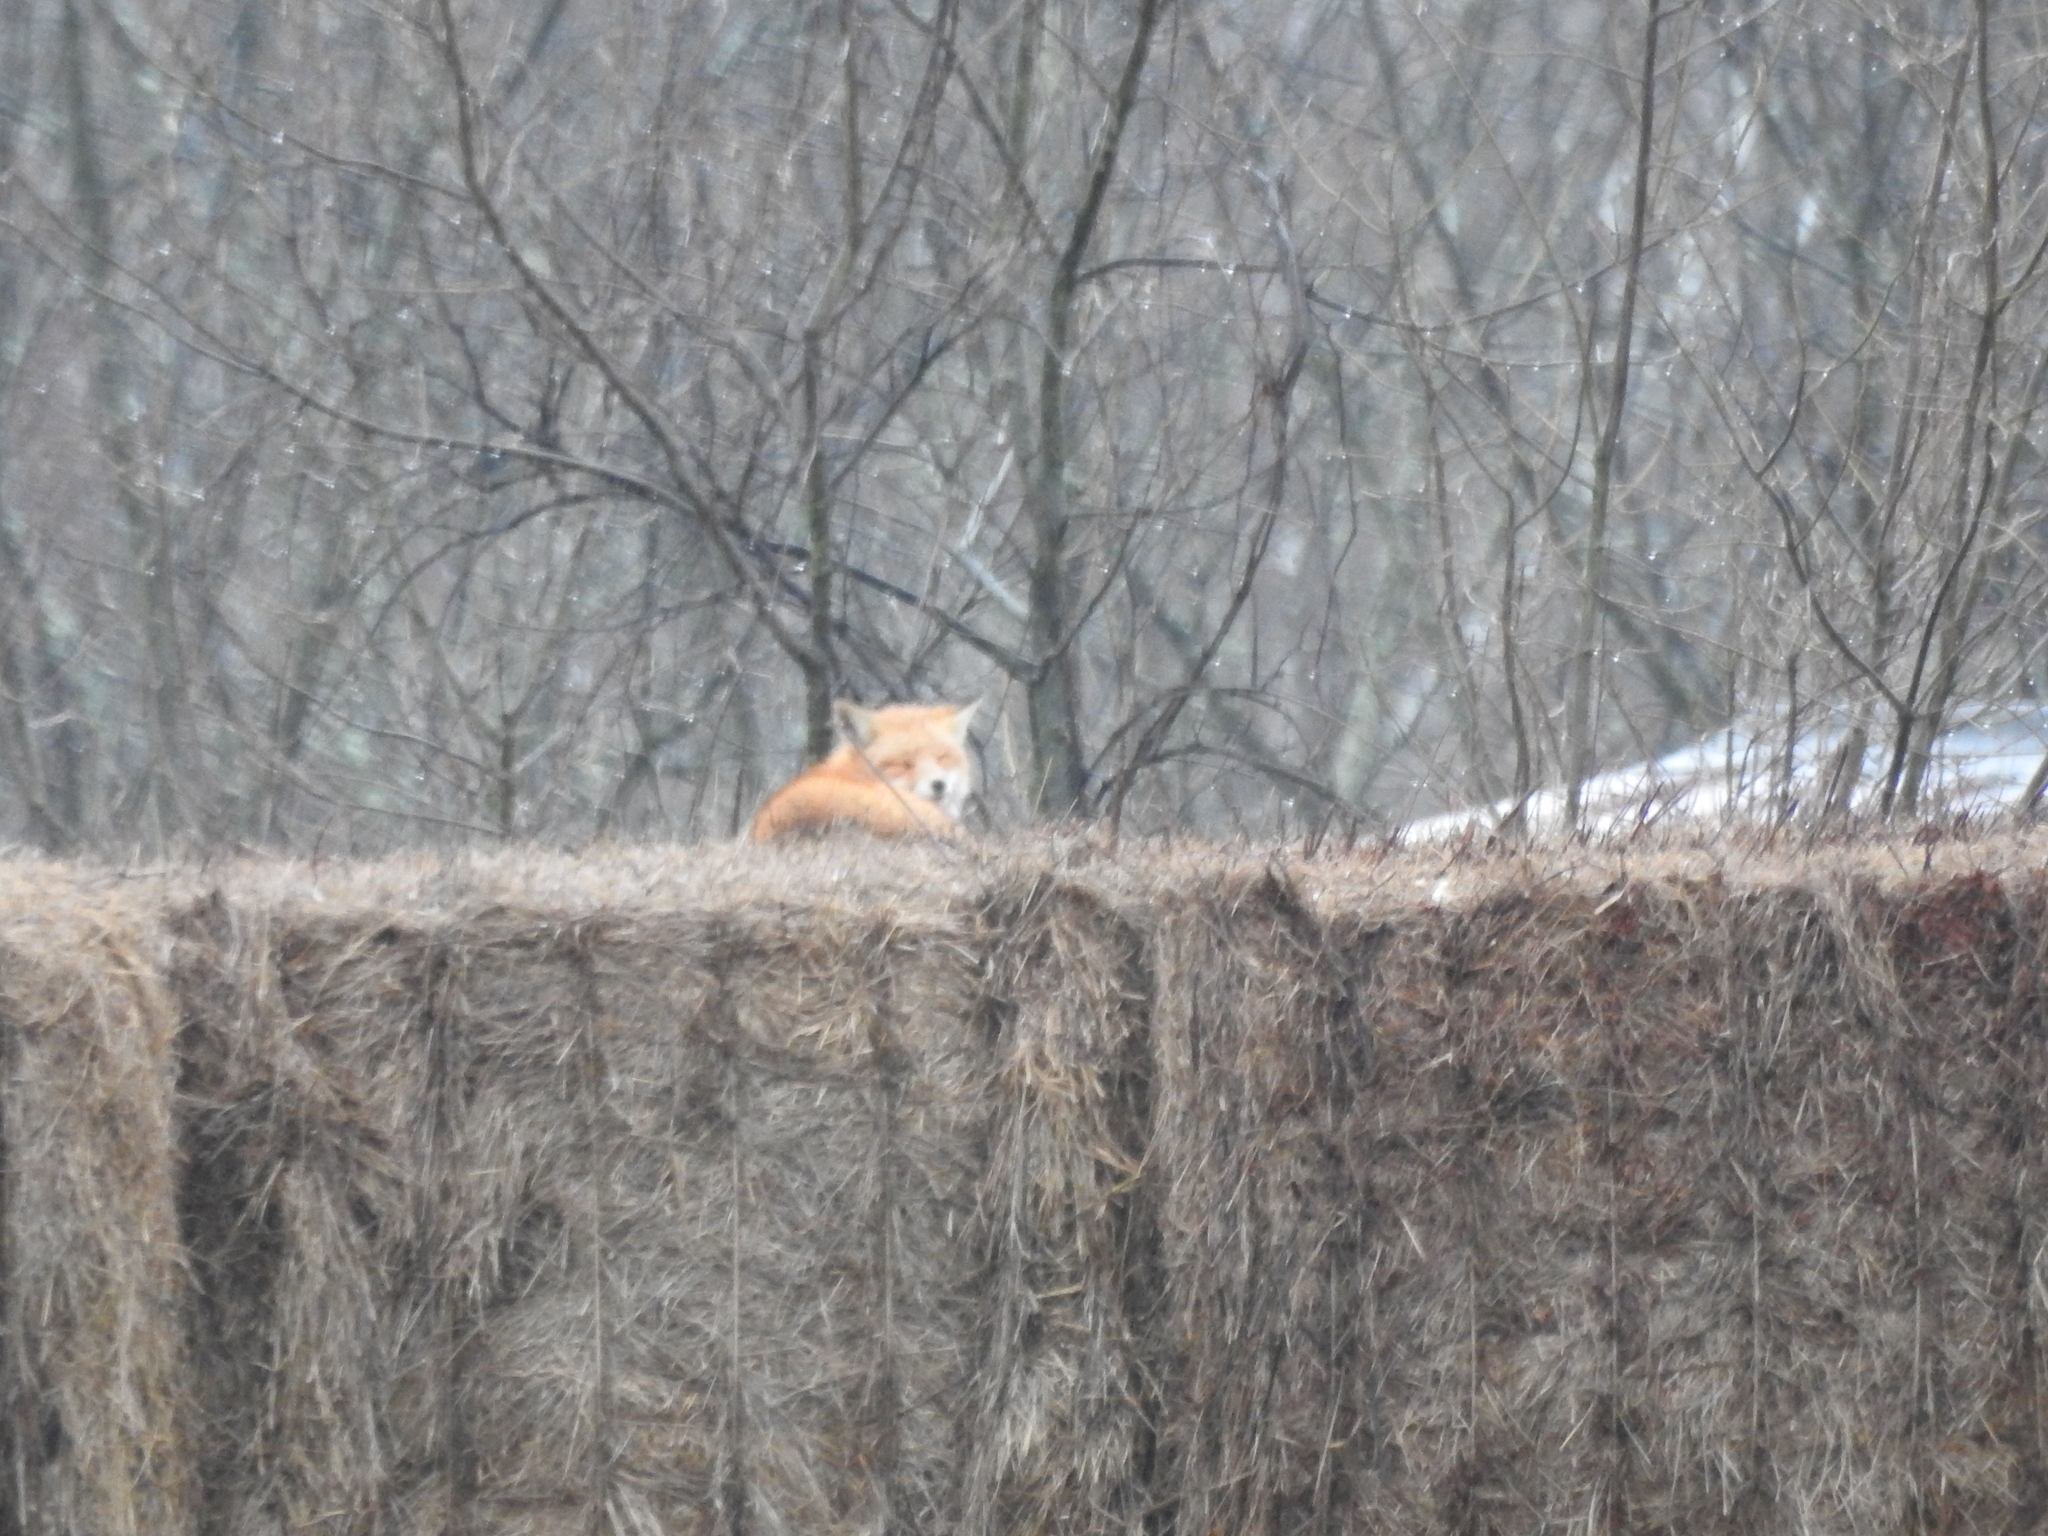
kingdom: Animalia
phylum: Chordata
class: Mammalia
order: Carnivora
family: Canidae
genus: Vulpes
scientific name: Vulpes vulpes
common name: Red fox
